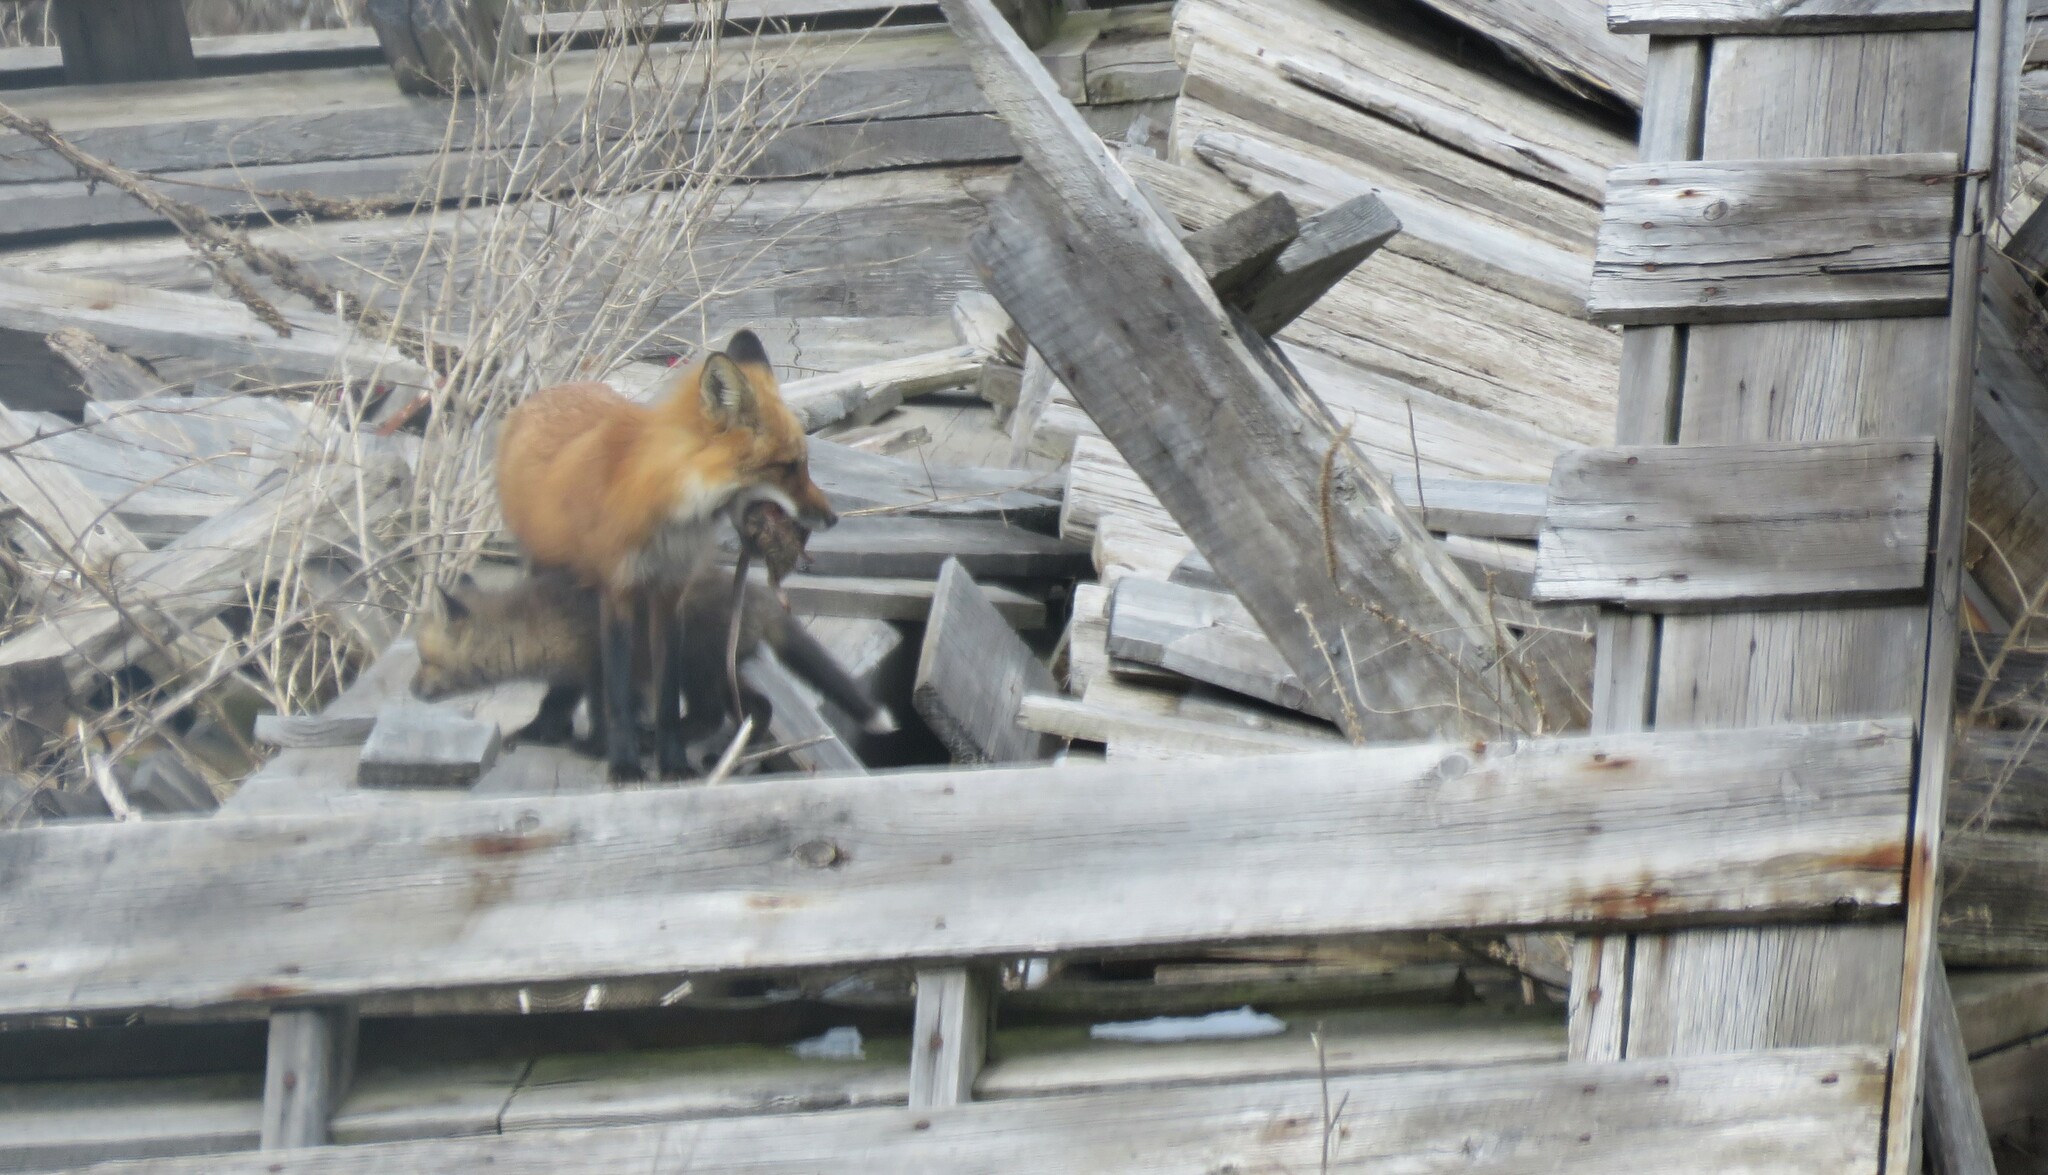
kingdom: Animalia
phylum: Chordata
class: Mammalia
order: Rodentia
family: Muridae
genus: Rattus
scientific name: Rattus norvegicus
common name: Brown rat
